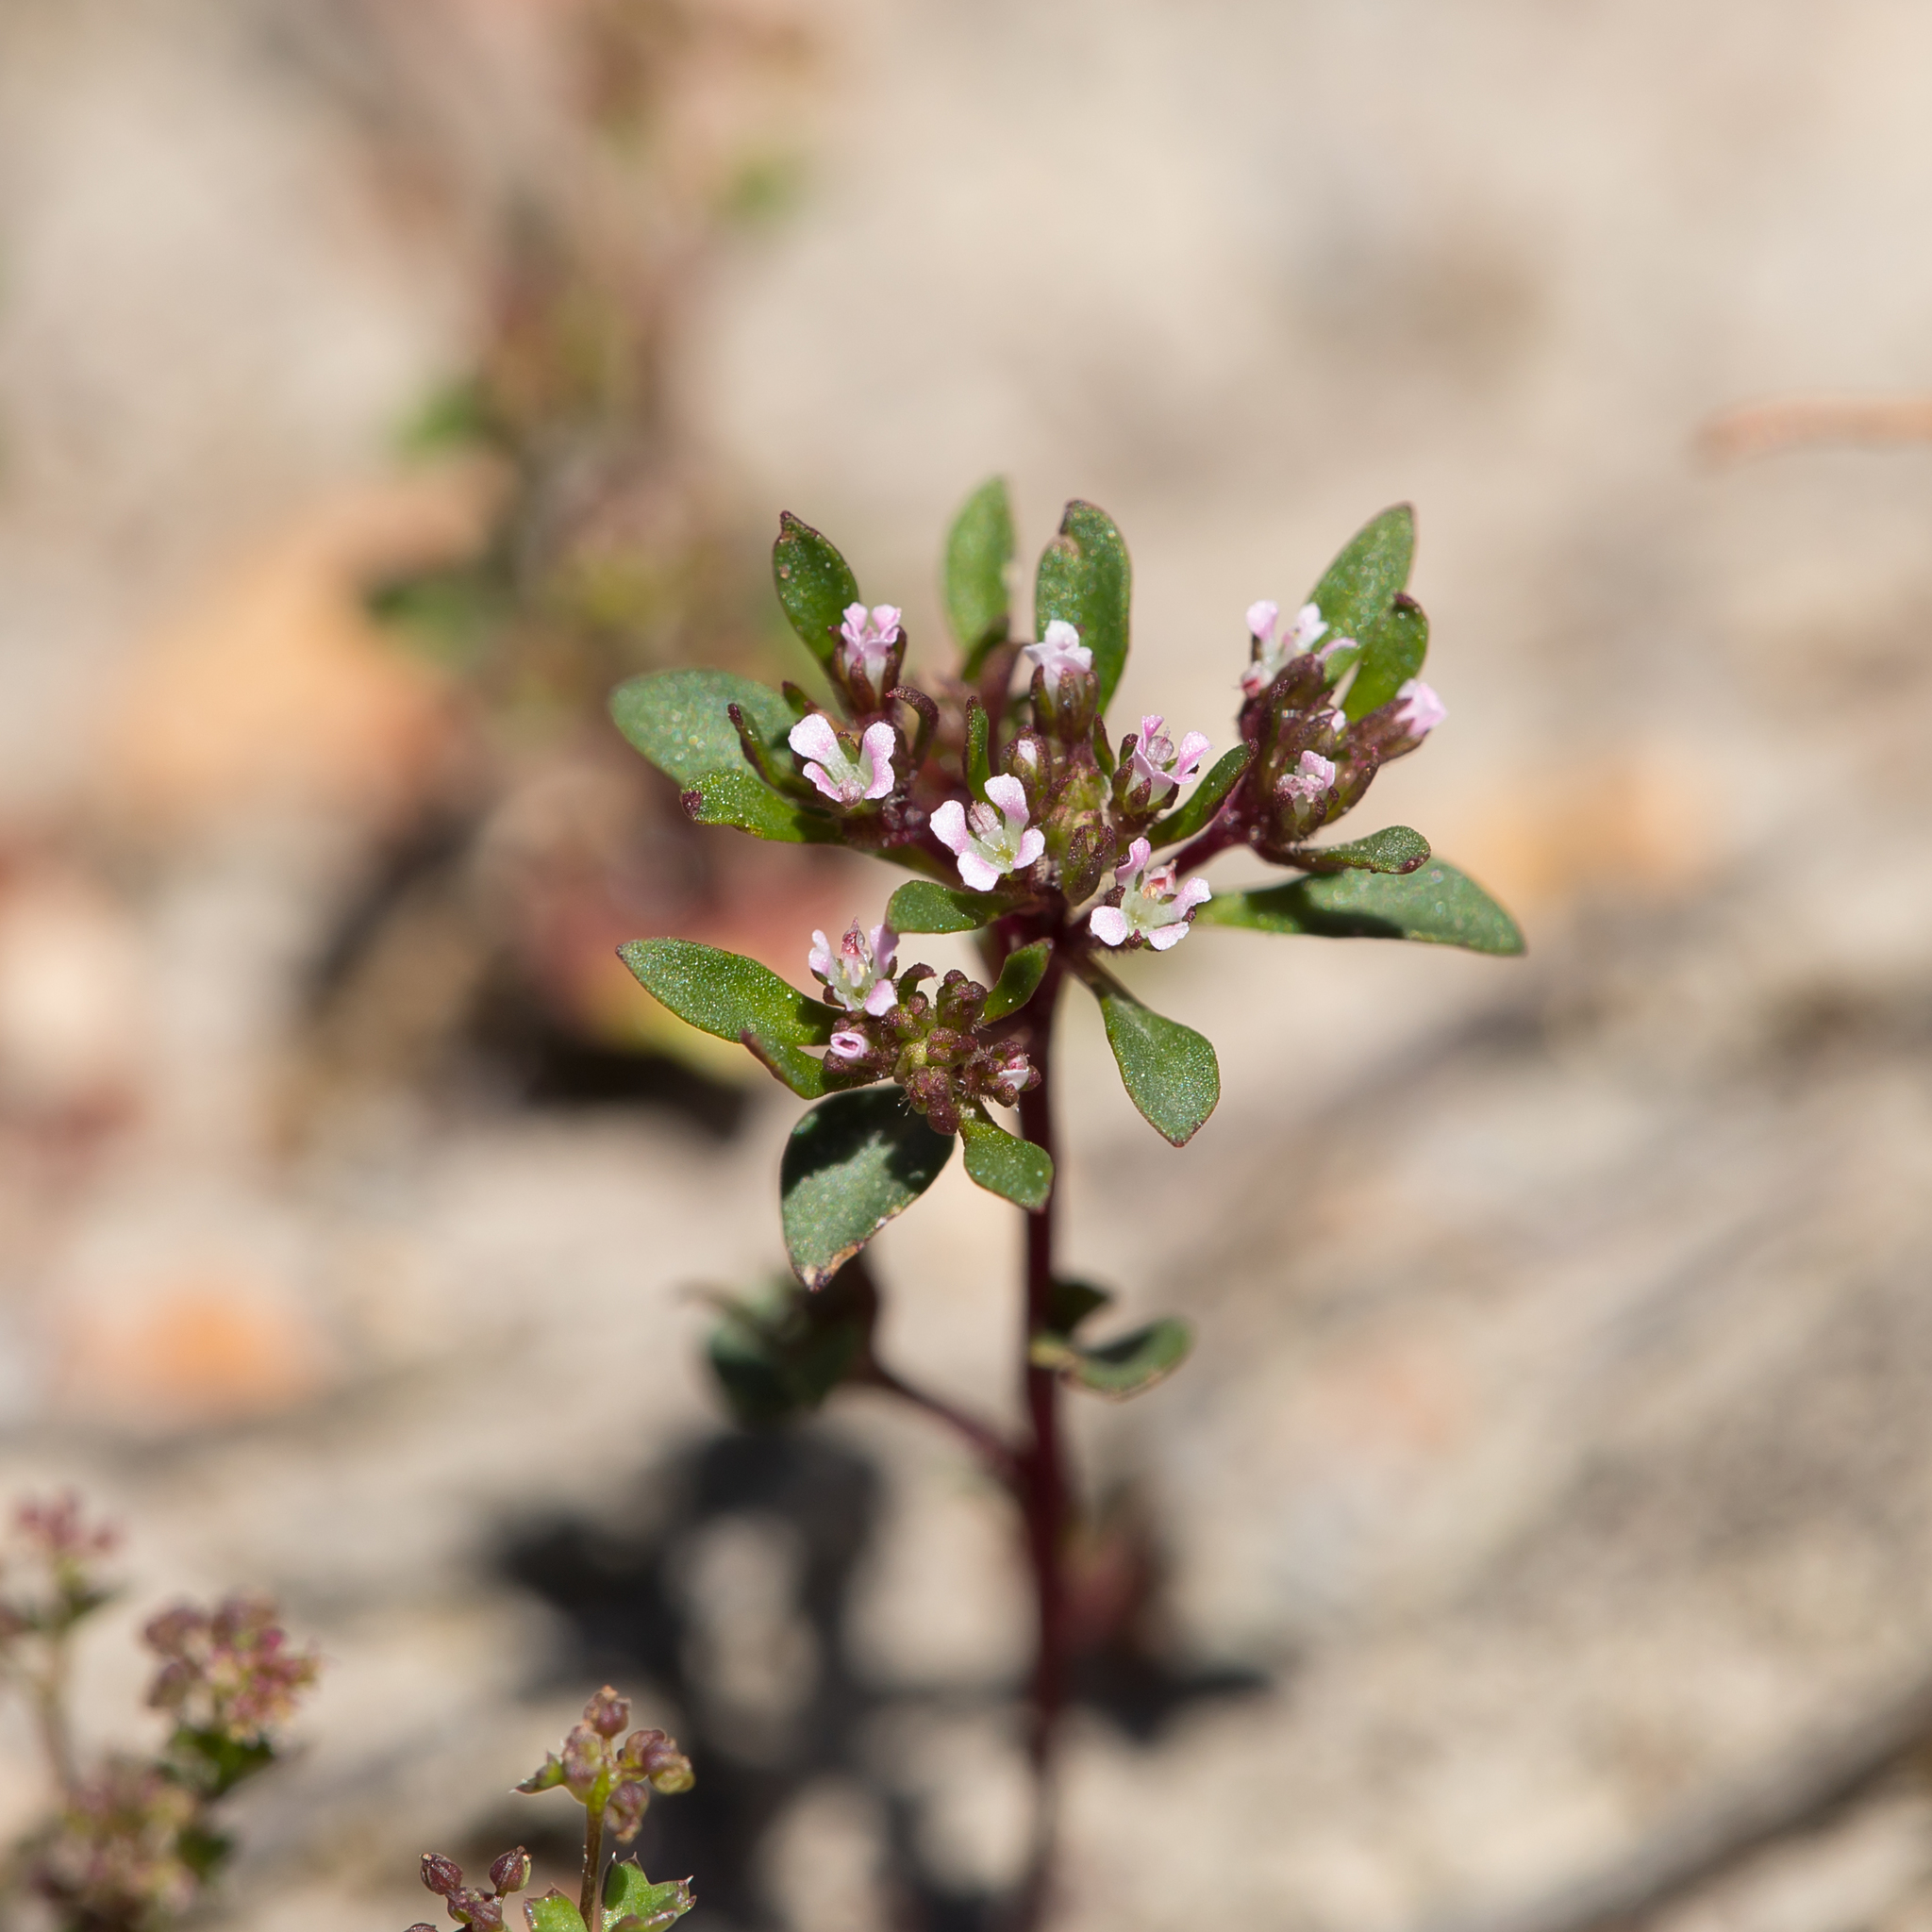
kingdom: Plantae
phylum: Tracheophyta
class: Magnoliopsida
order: Asterales
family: Stylidiaceae
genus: Levenhookia
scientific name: Levenhookia pusilla
